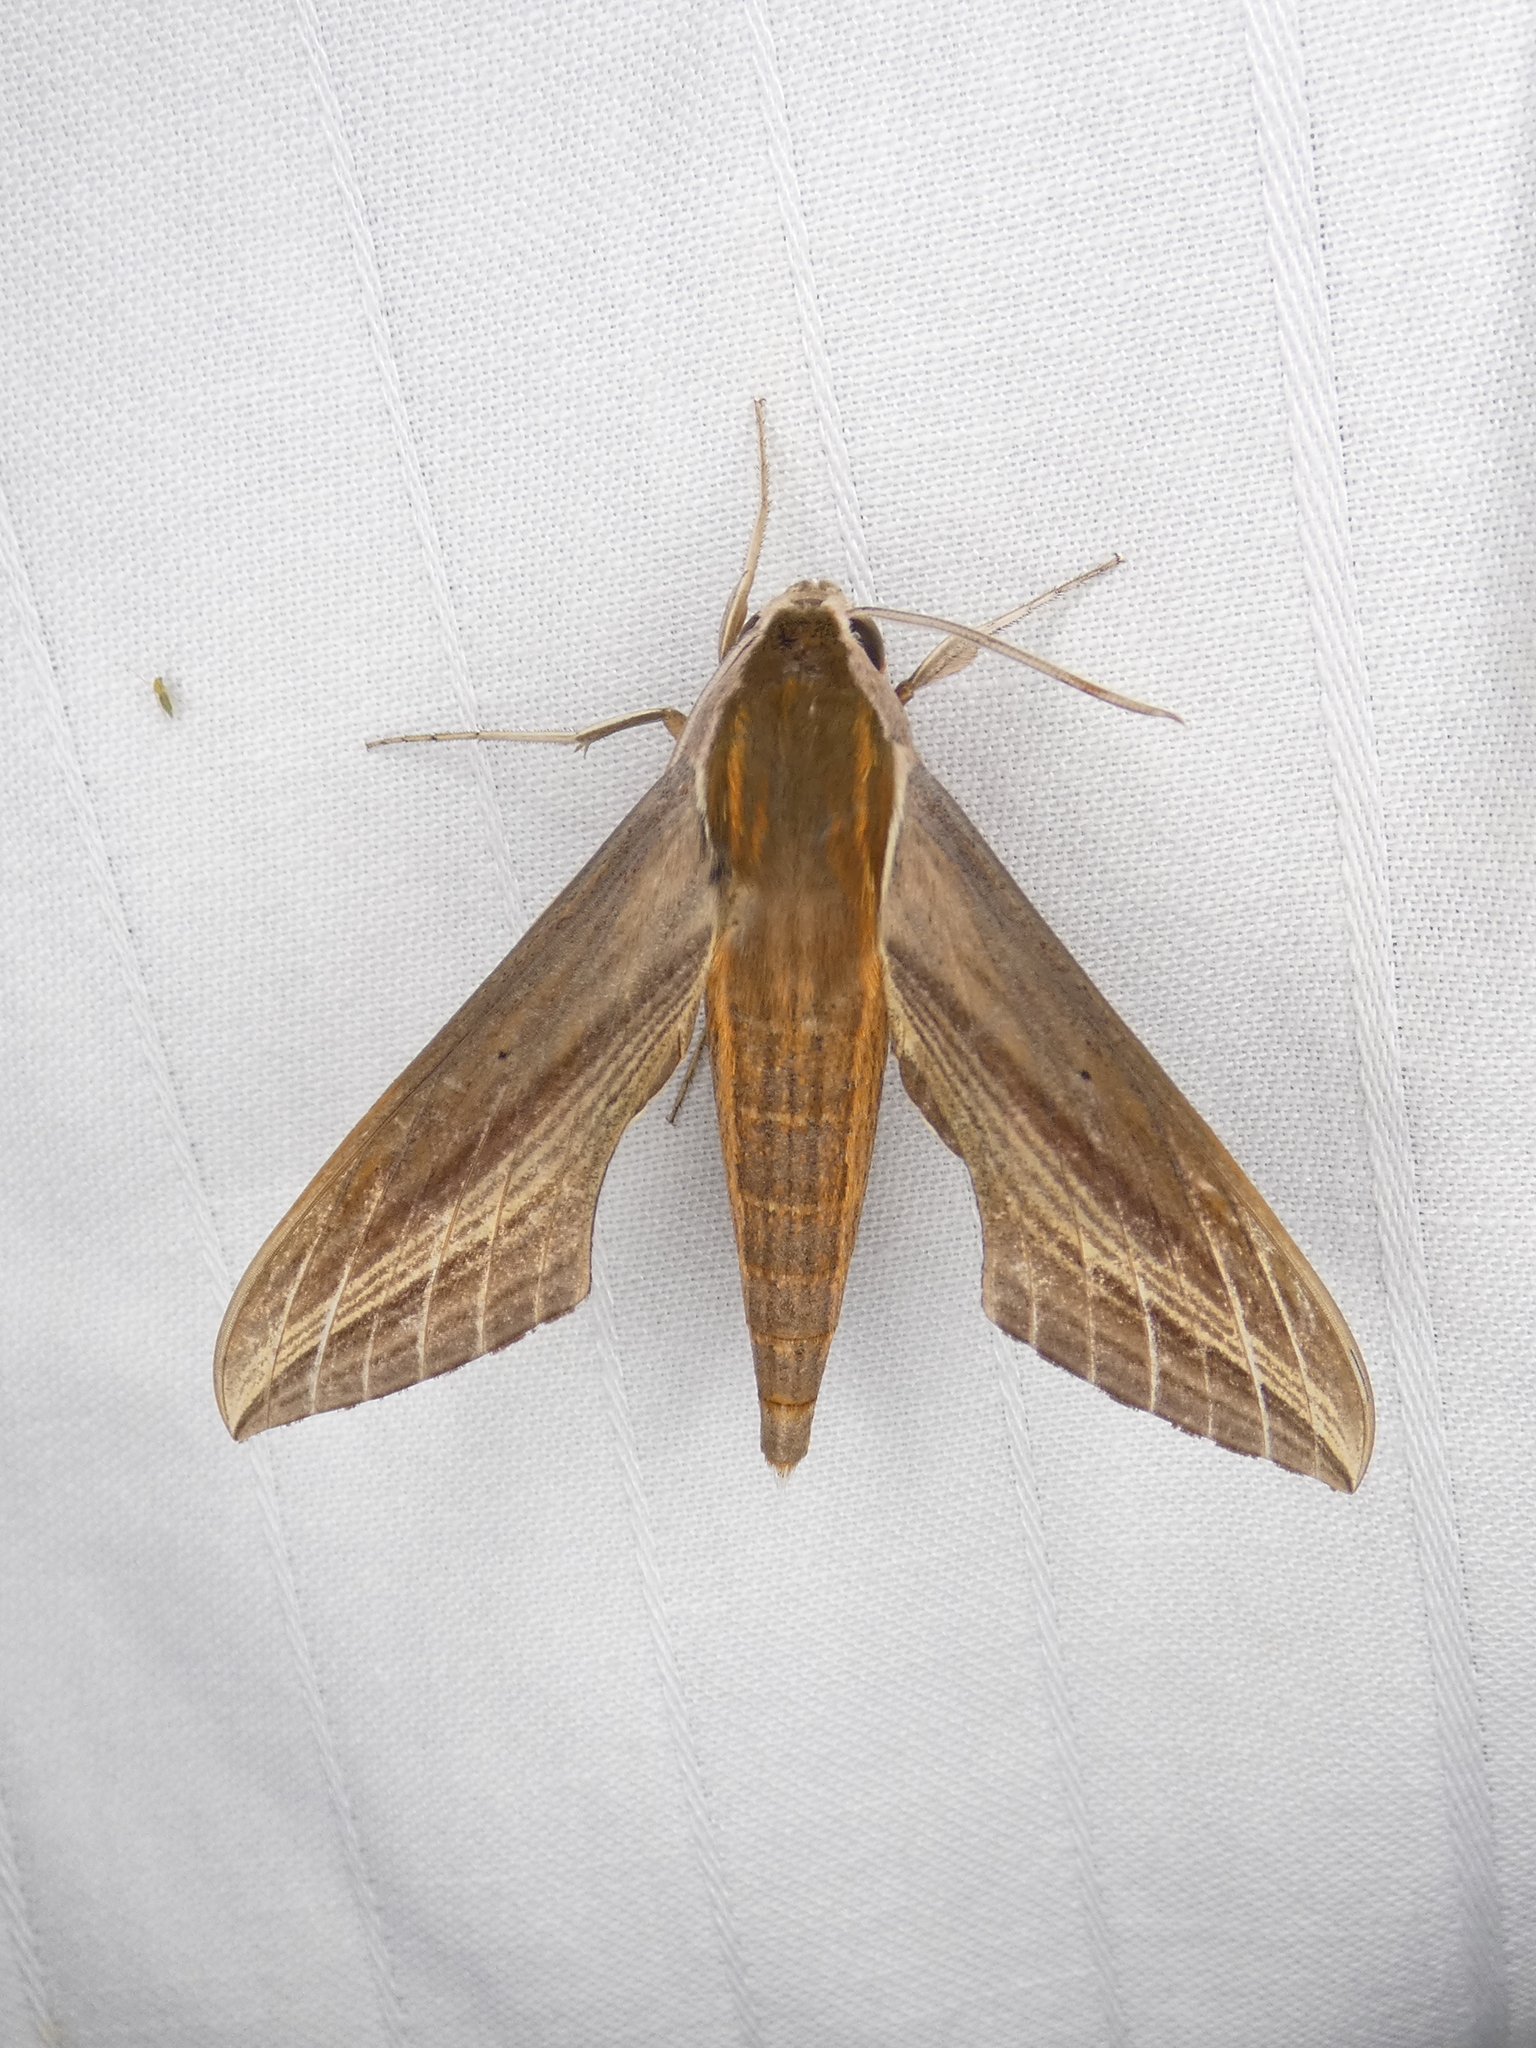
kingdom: Animalia
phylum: Arthropoda
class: Insecta
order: Lepidoptera
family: Sphingidae
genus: Xylophanes
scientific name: Xylophanes tersa
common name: Tersa sphinx
